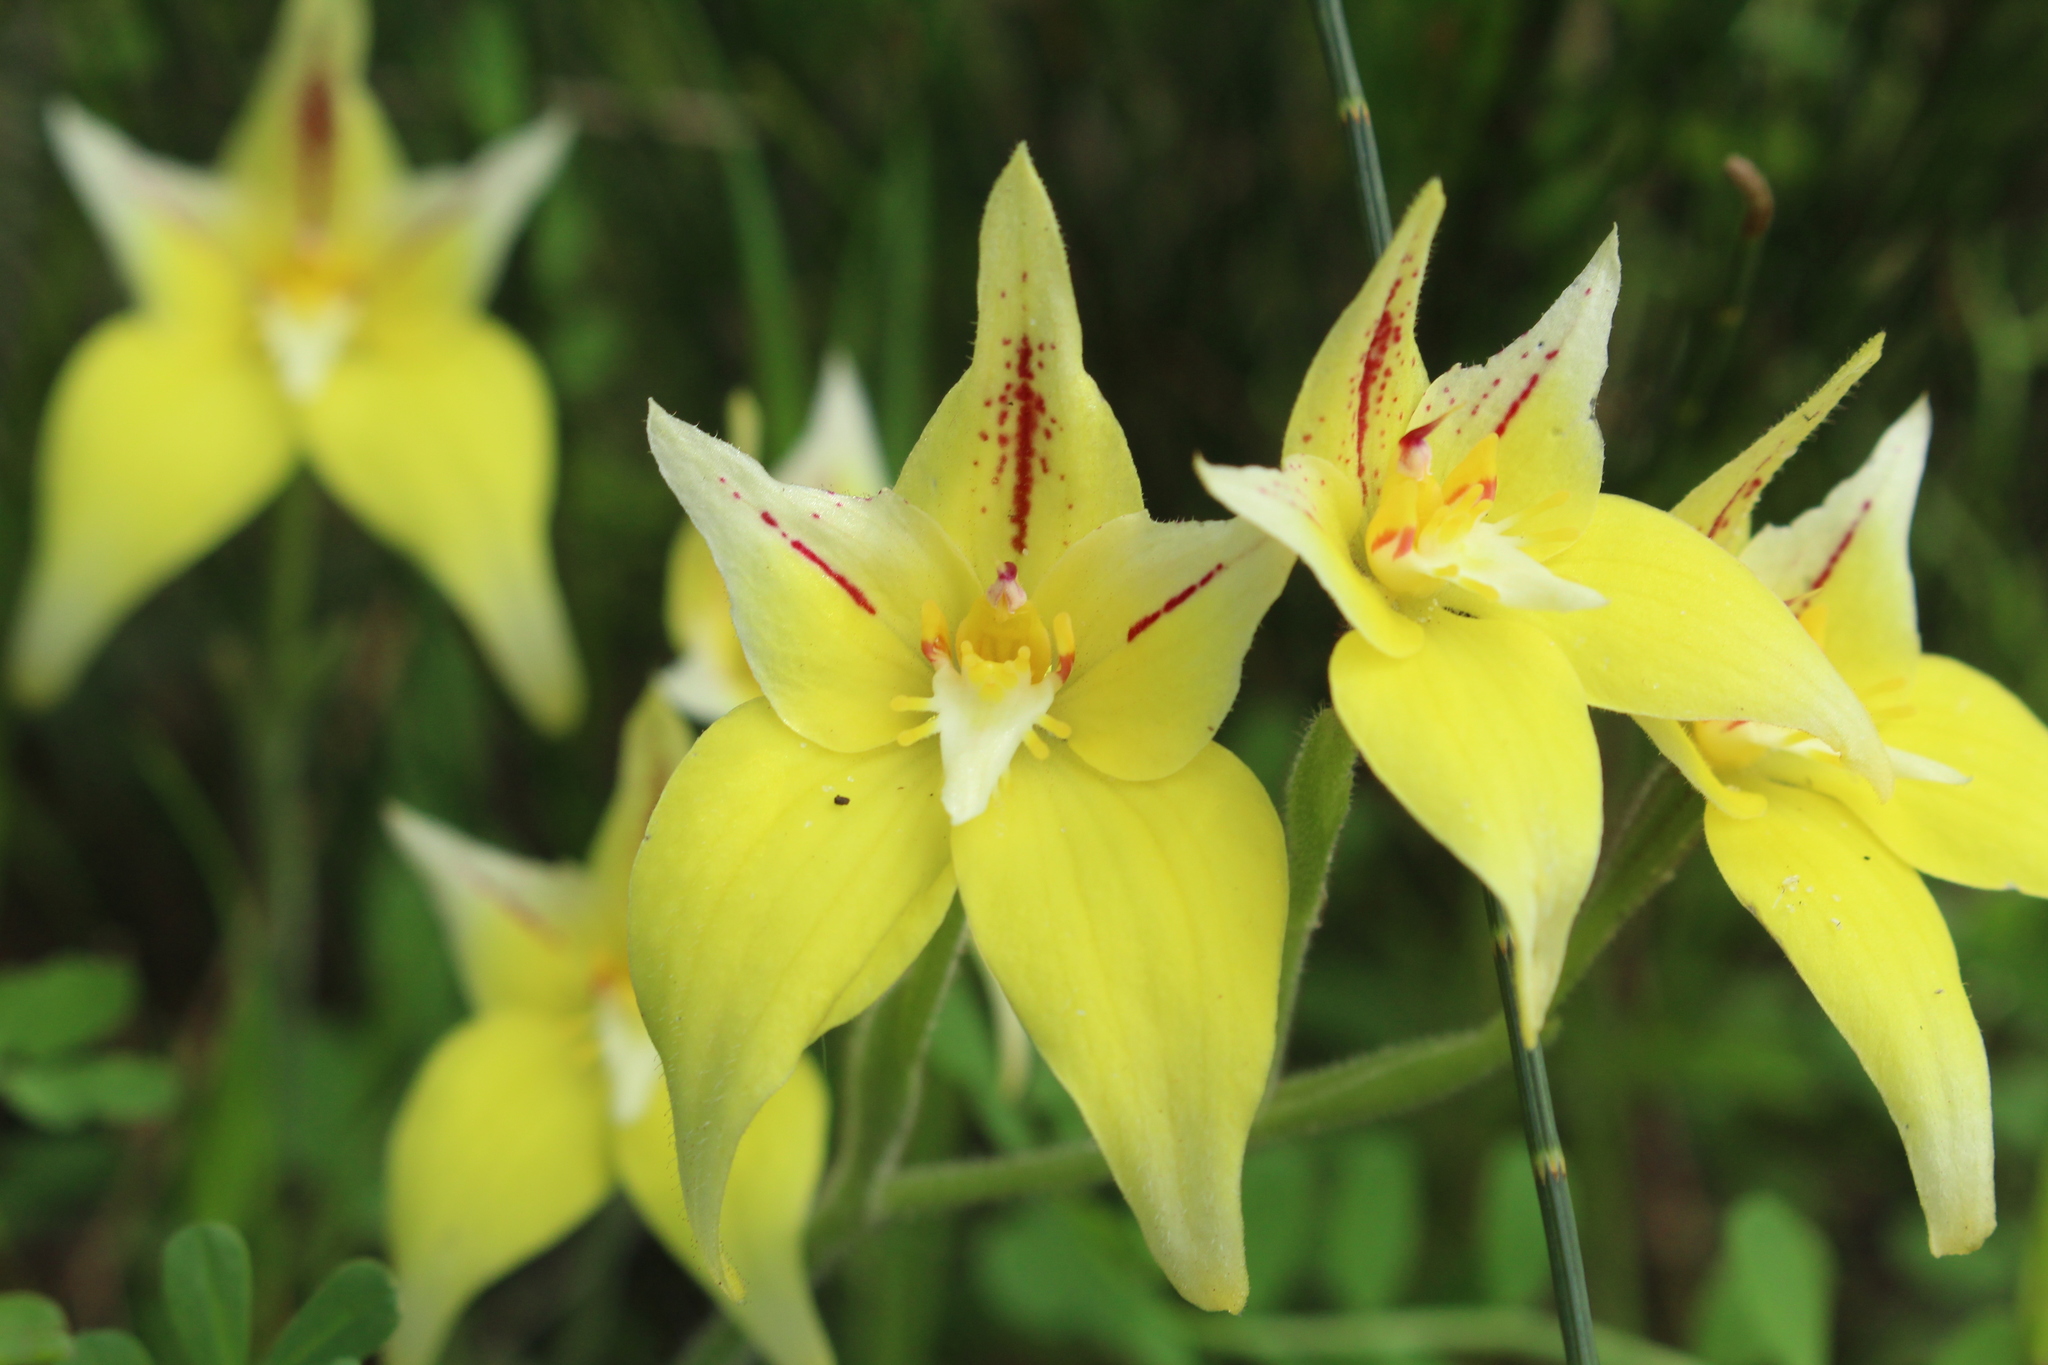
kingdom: Plantae
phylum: Tracheophyta
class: Liliopsida
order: Asparagales
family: Orchidaceae
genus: Caladenia
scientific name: Caladenia flava
